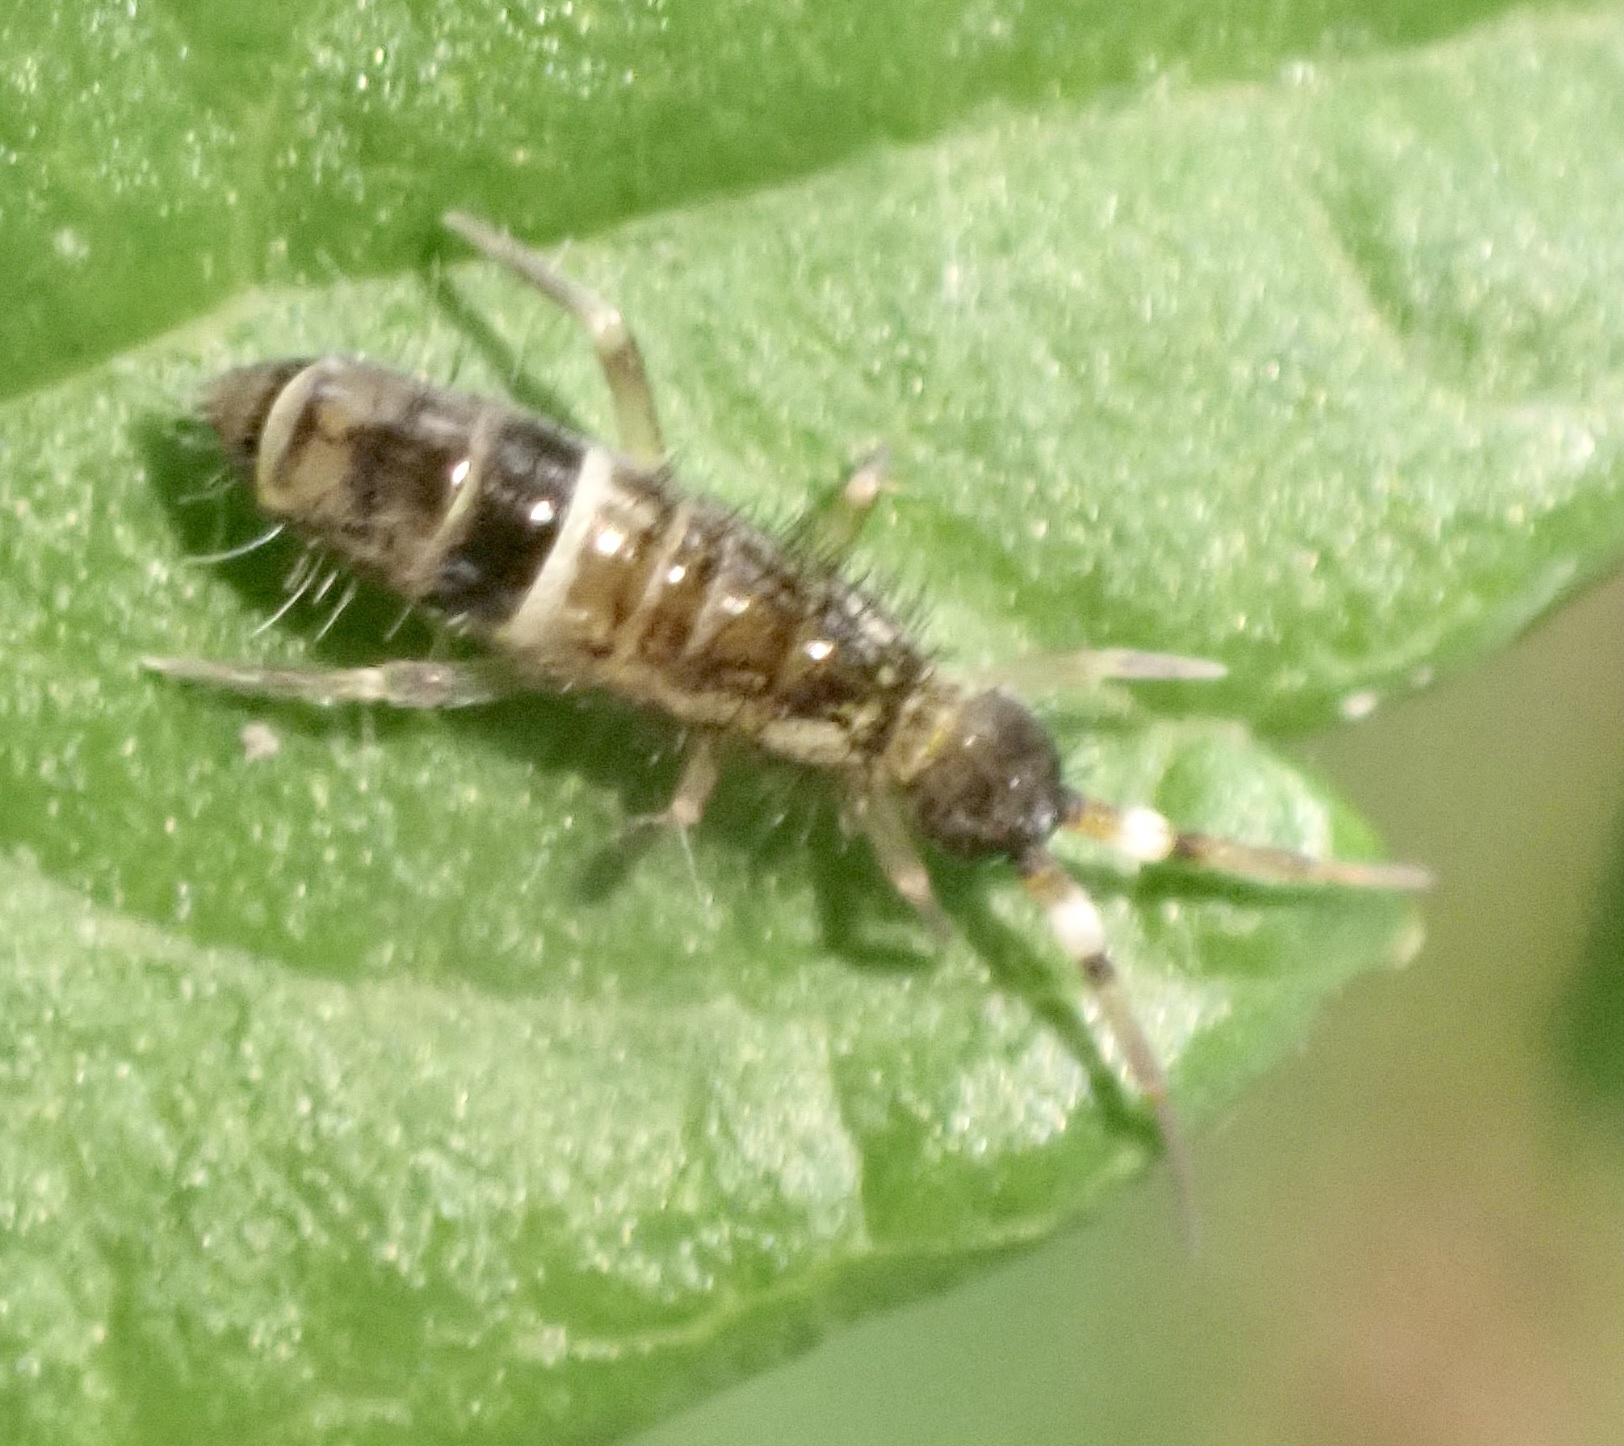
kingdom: Animalia
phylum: Arthropoda
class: Collembola
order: Entomobryomorpha
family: Orchesellidae
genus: Orchesella
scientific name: Orchesella cincta
